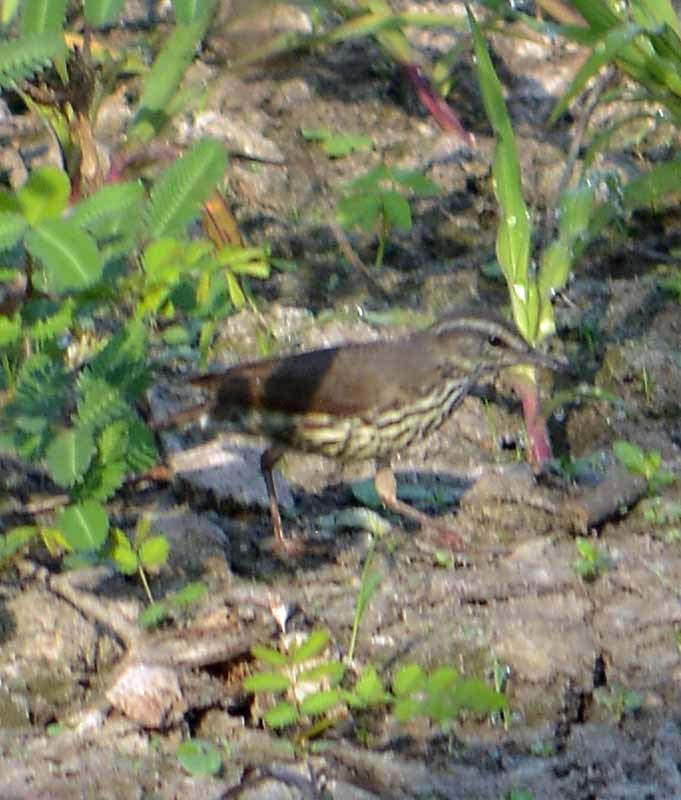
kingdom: Animalia
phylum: Chordata
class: Aves
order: Passeriformes
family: Parulidae
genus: Parkesia
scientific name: Parkesia noveboracensis
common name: Northern waterthrush
